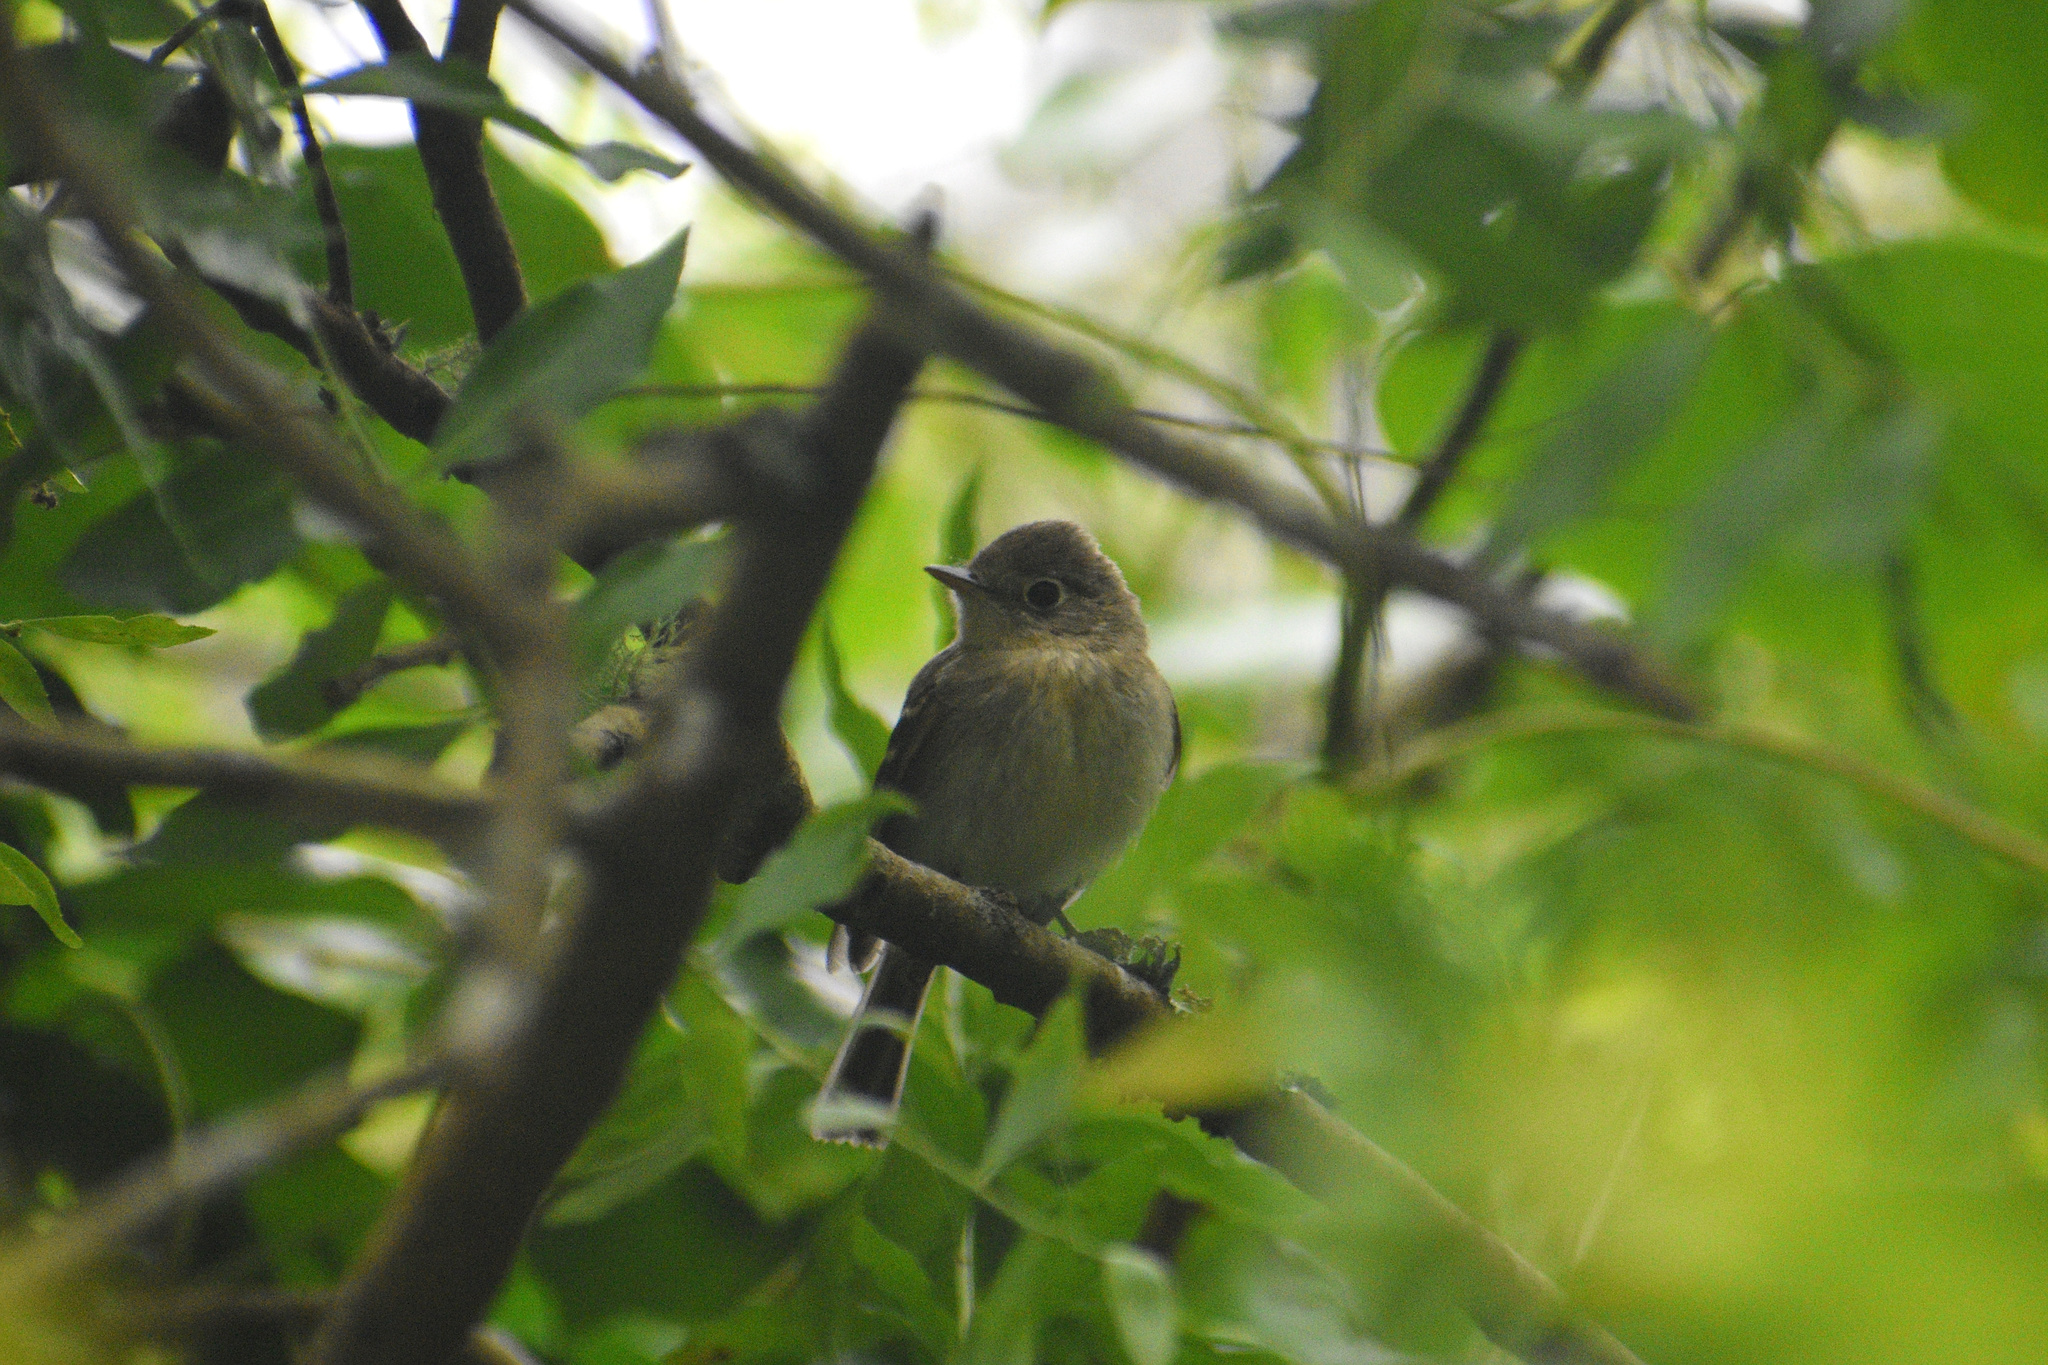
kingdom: Animalia
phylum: Chordata
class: Aves
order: Passeriformes
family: Tyrannidae
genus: Empidonax
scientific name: Empidonax difficilis
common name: Pacific-slope flycatcher
